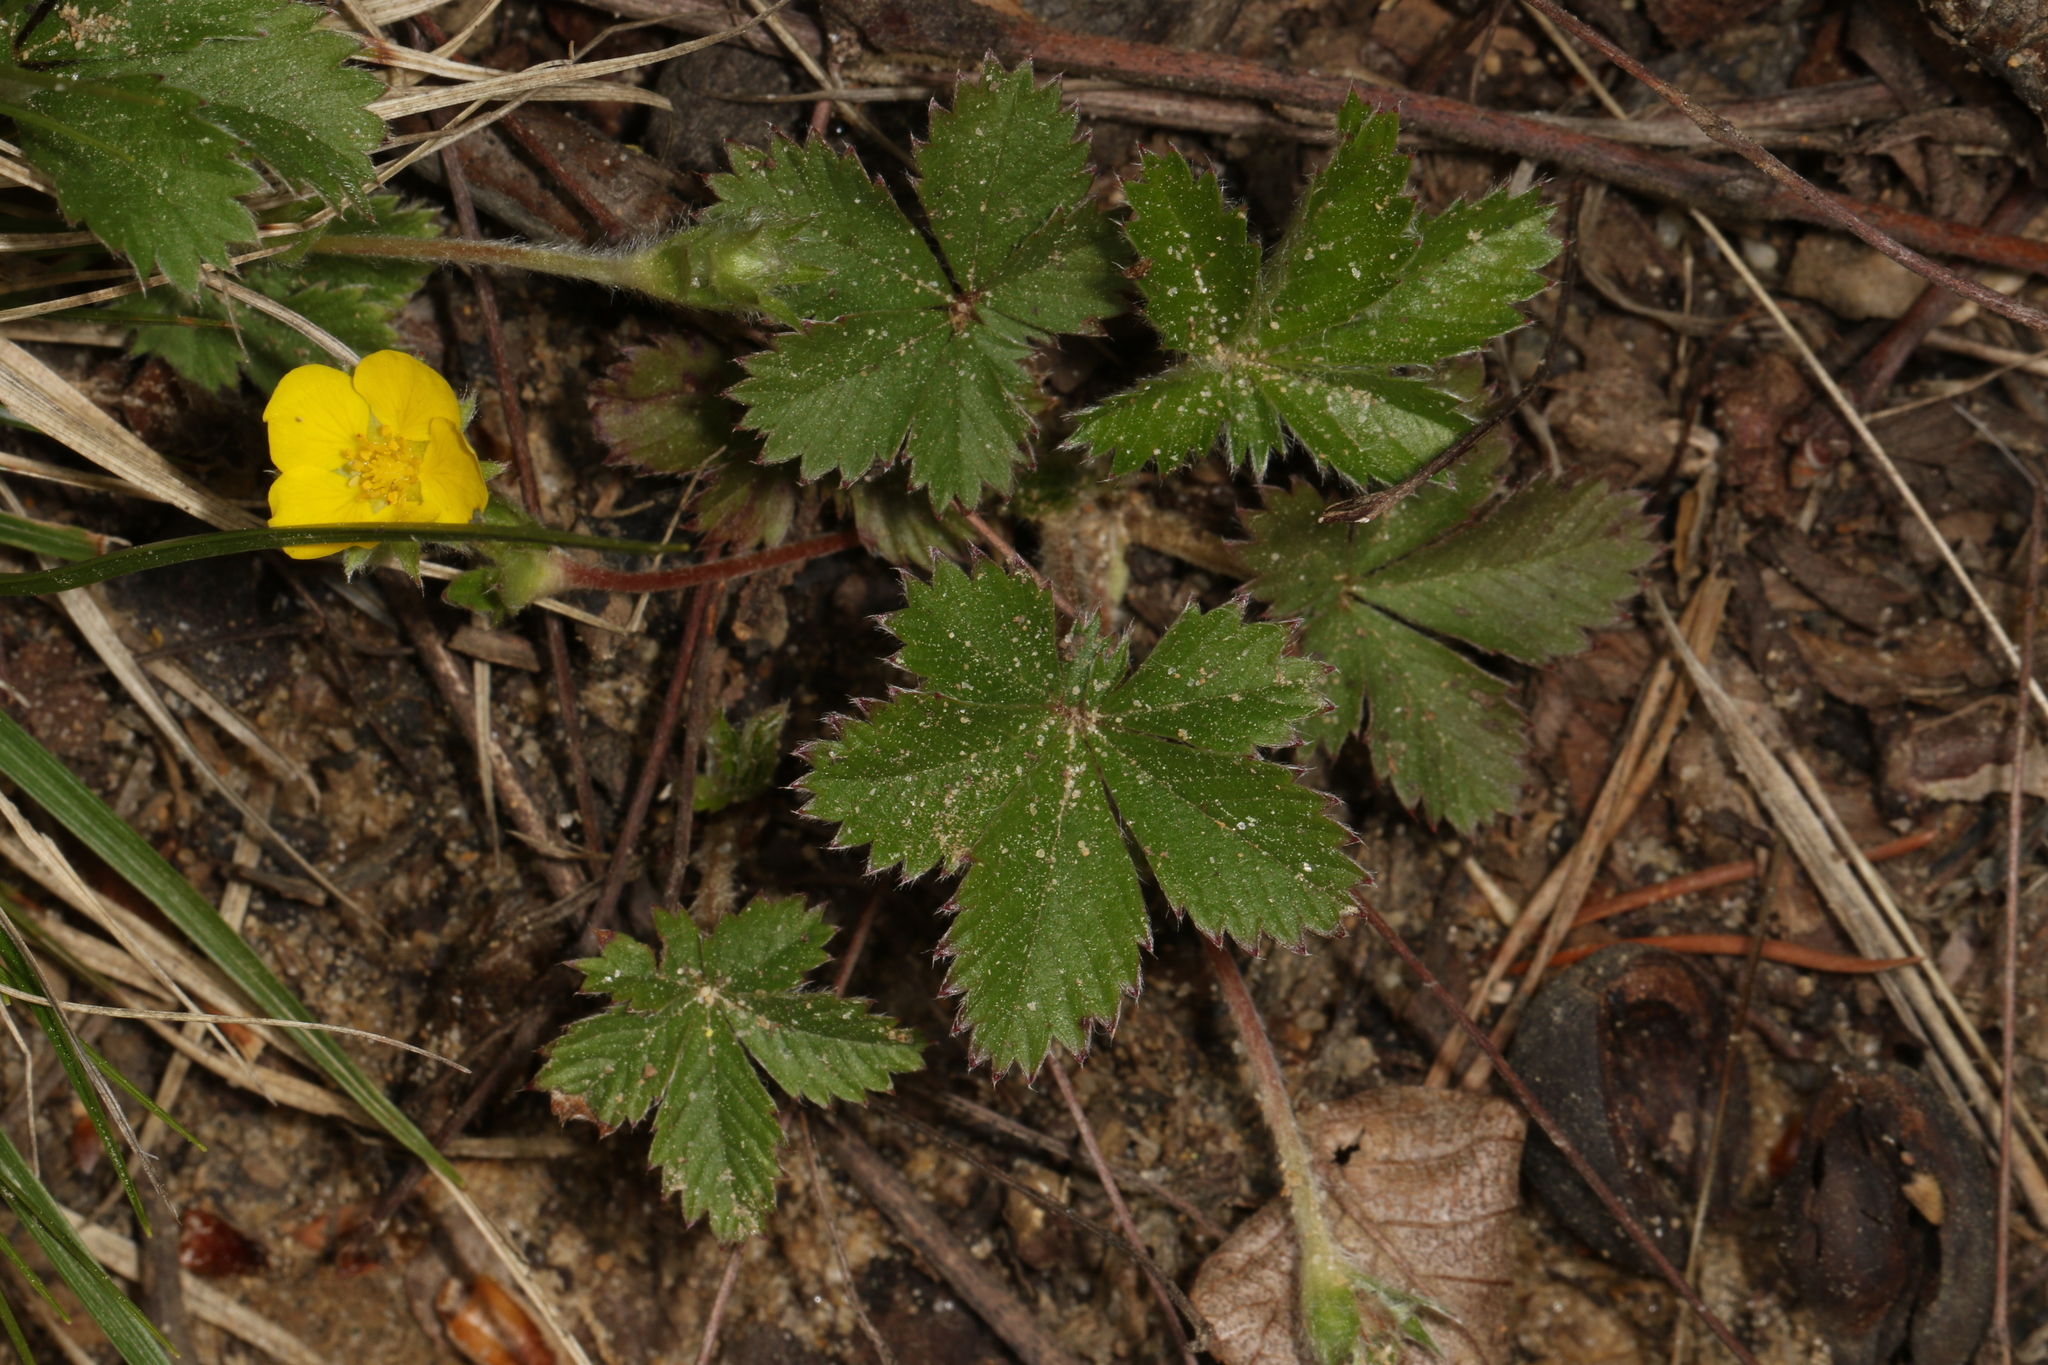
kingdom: Plantae
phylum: Tracheophyta
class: Magnoliopsida
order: Rosales
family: Rosaceae
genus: Potentilla
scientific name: Potentilla canadensis
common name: Canada cinquefoil
